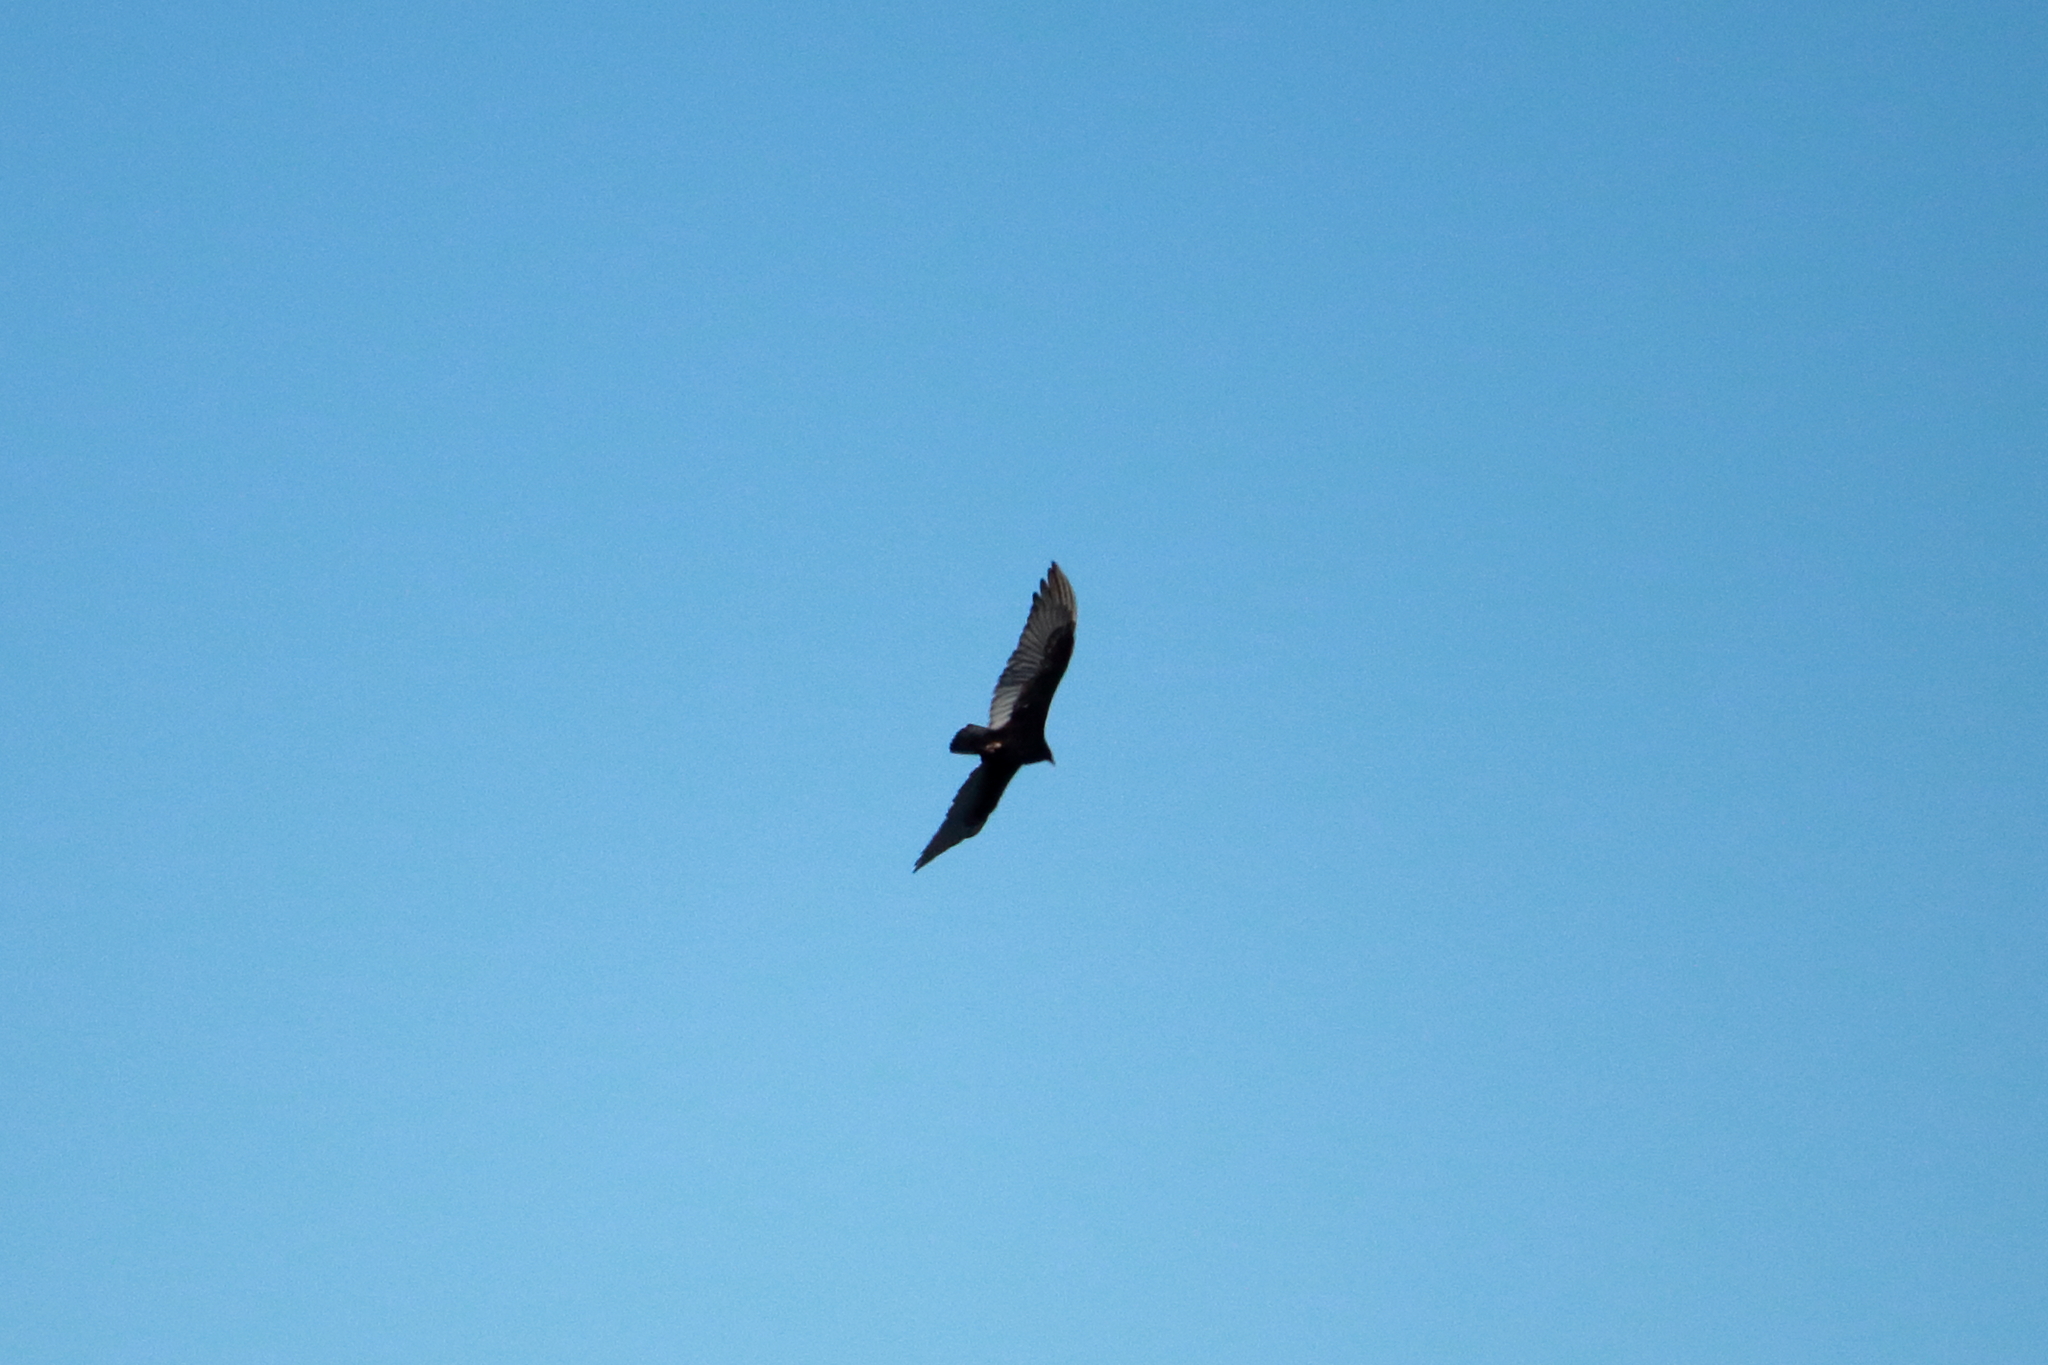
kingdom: Animalia
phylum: Chordata
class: Aves
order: Accipitriformes
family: Cathartidae
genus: Cathartes
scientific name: Cathartes aura
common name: Turkey vulture
